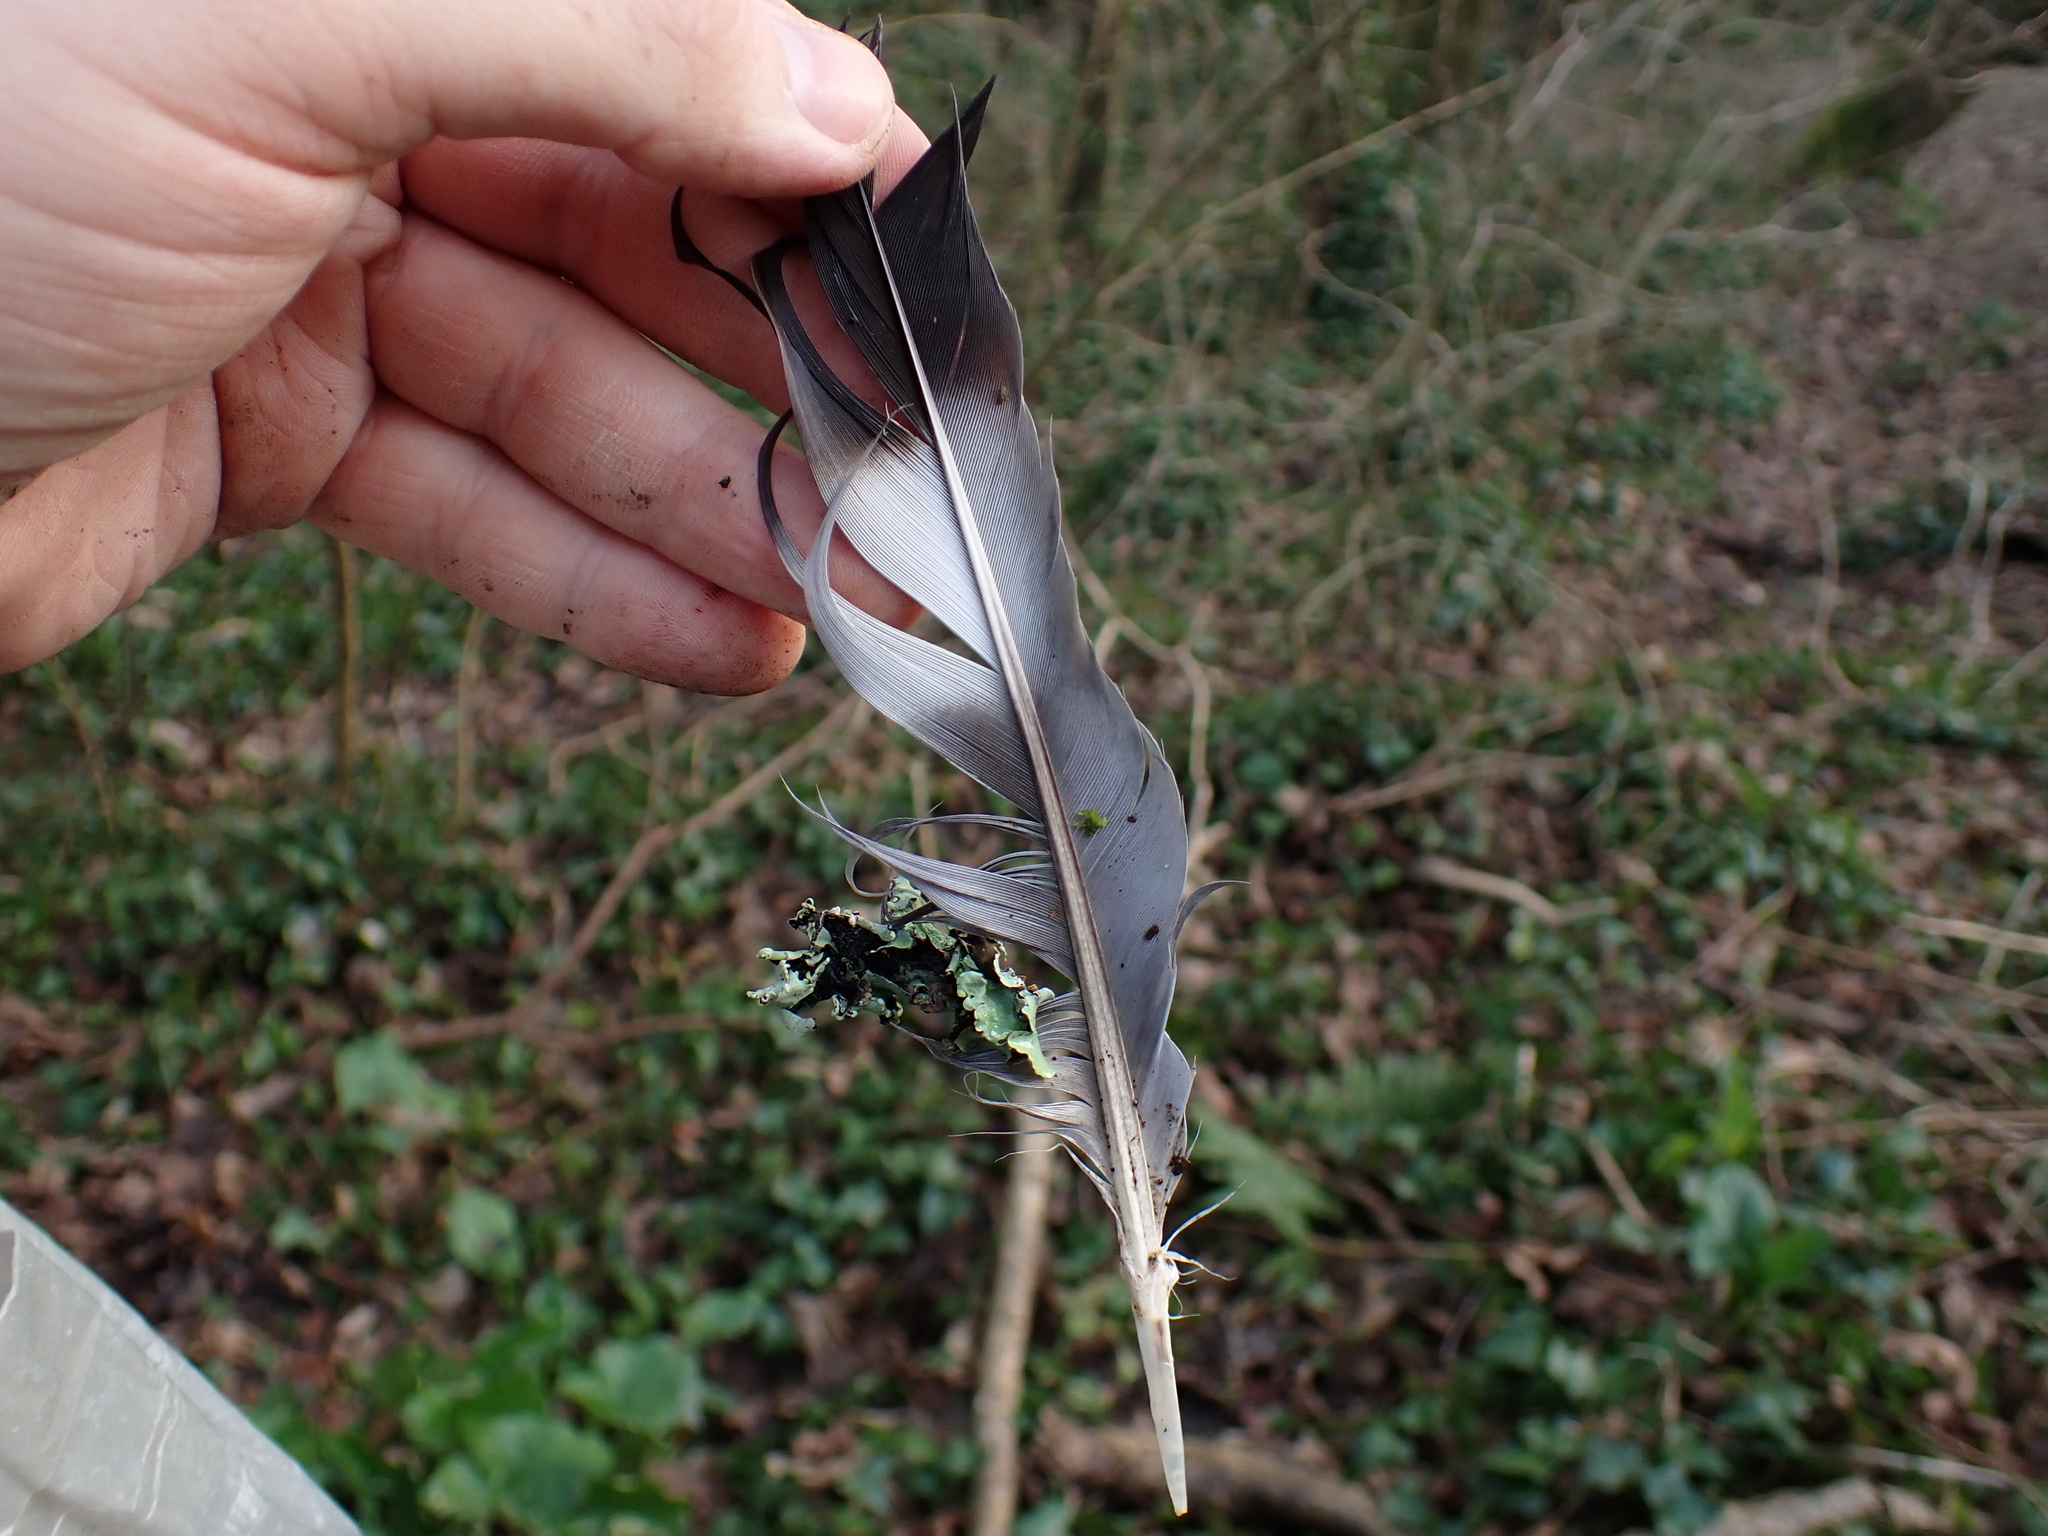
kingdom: Animalia
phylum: Chordata
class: Aves
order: Columbiformes
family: Columbidae
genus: Columba
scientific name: Columba palumbus
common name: Common wood pigeon
